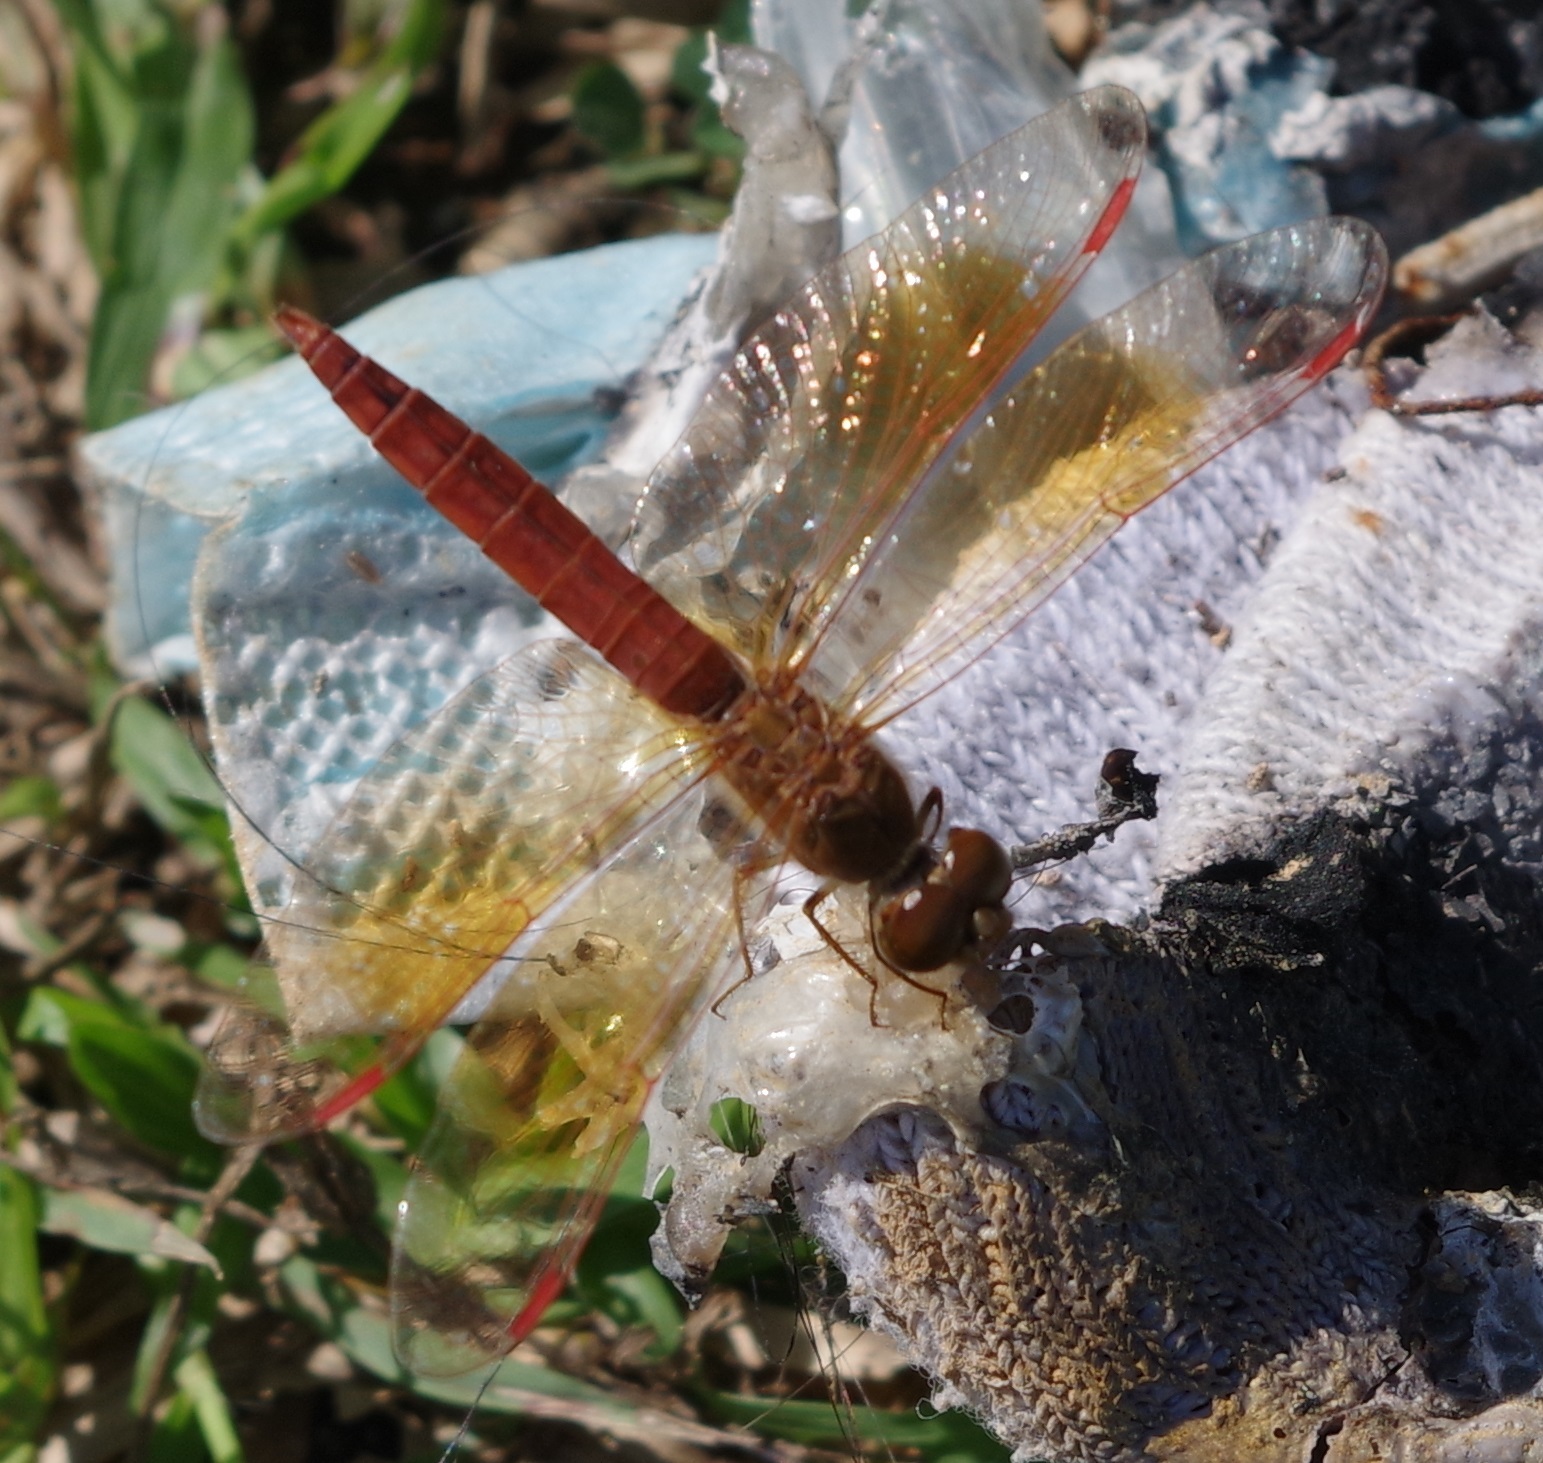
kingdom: Animalia
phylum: Arthropoda
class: Insecta
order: Odonata
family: Libellulidae
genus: Brachythemis
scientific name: Brachythemis contaminata
